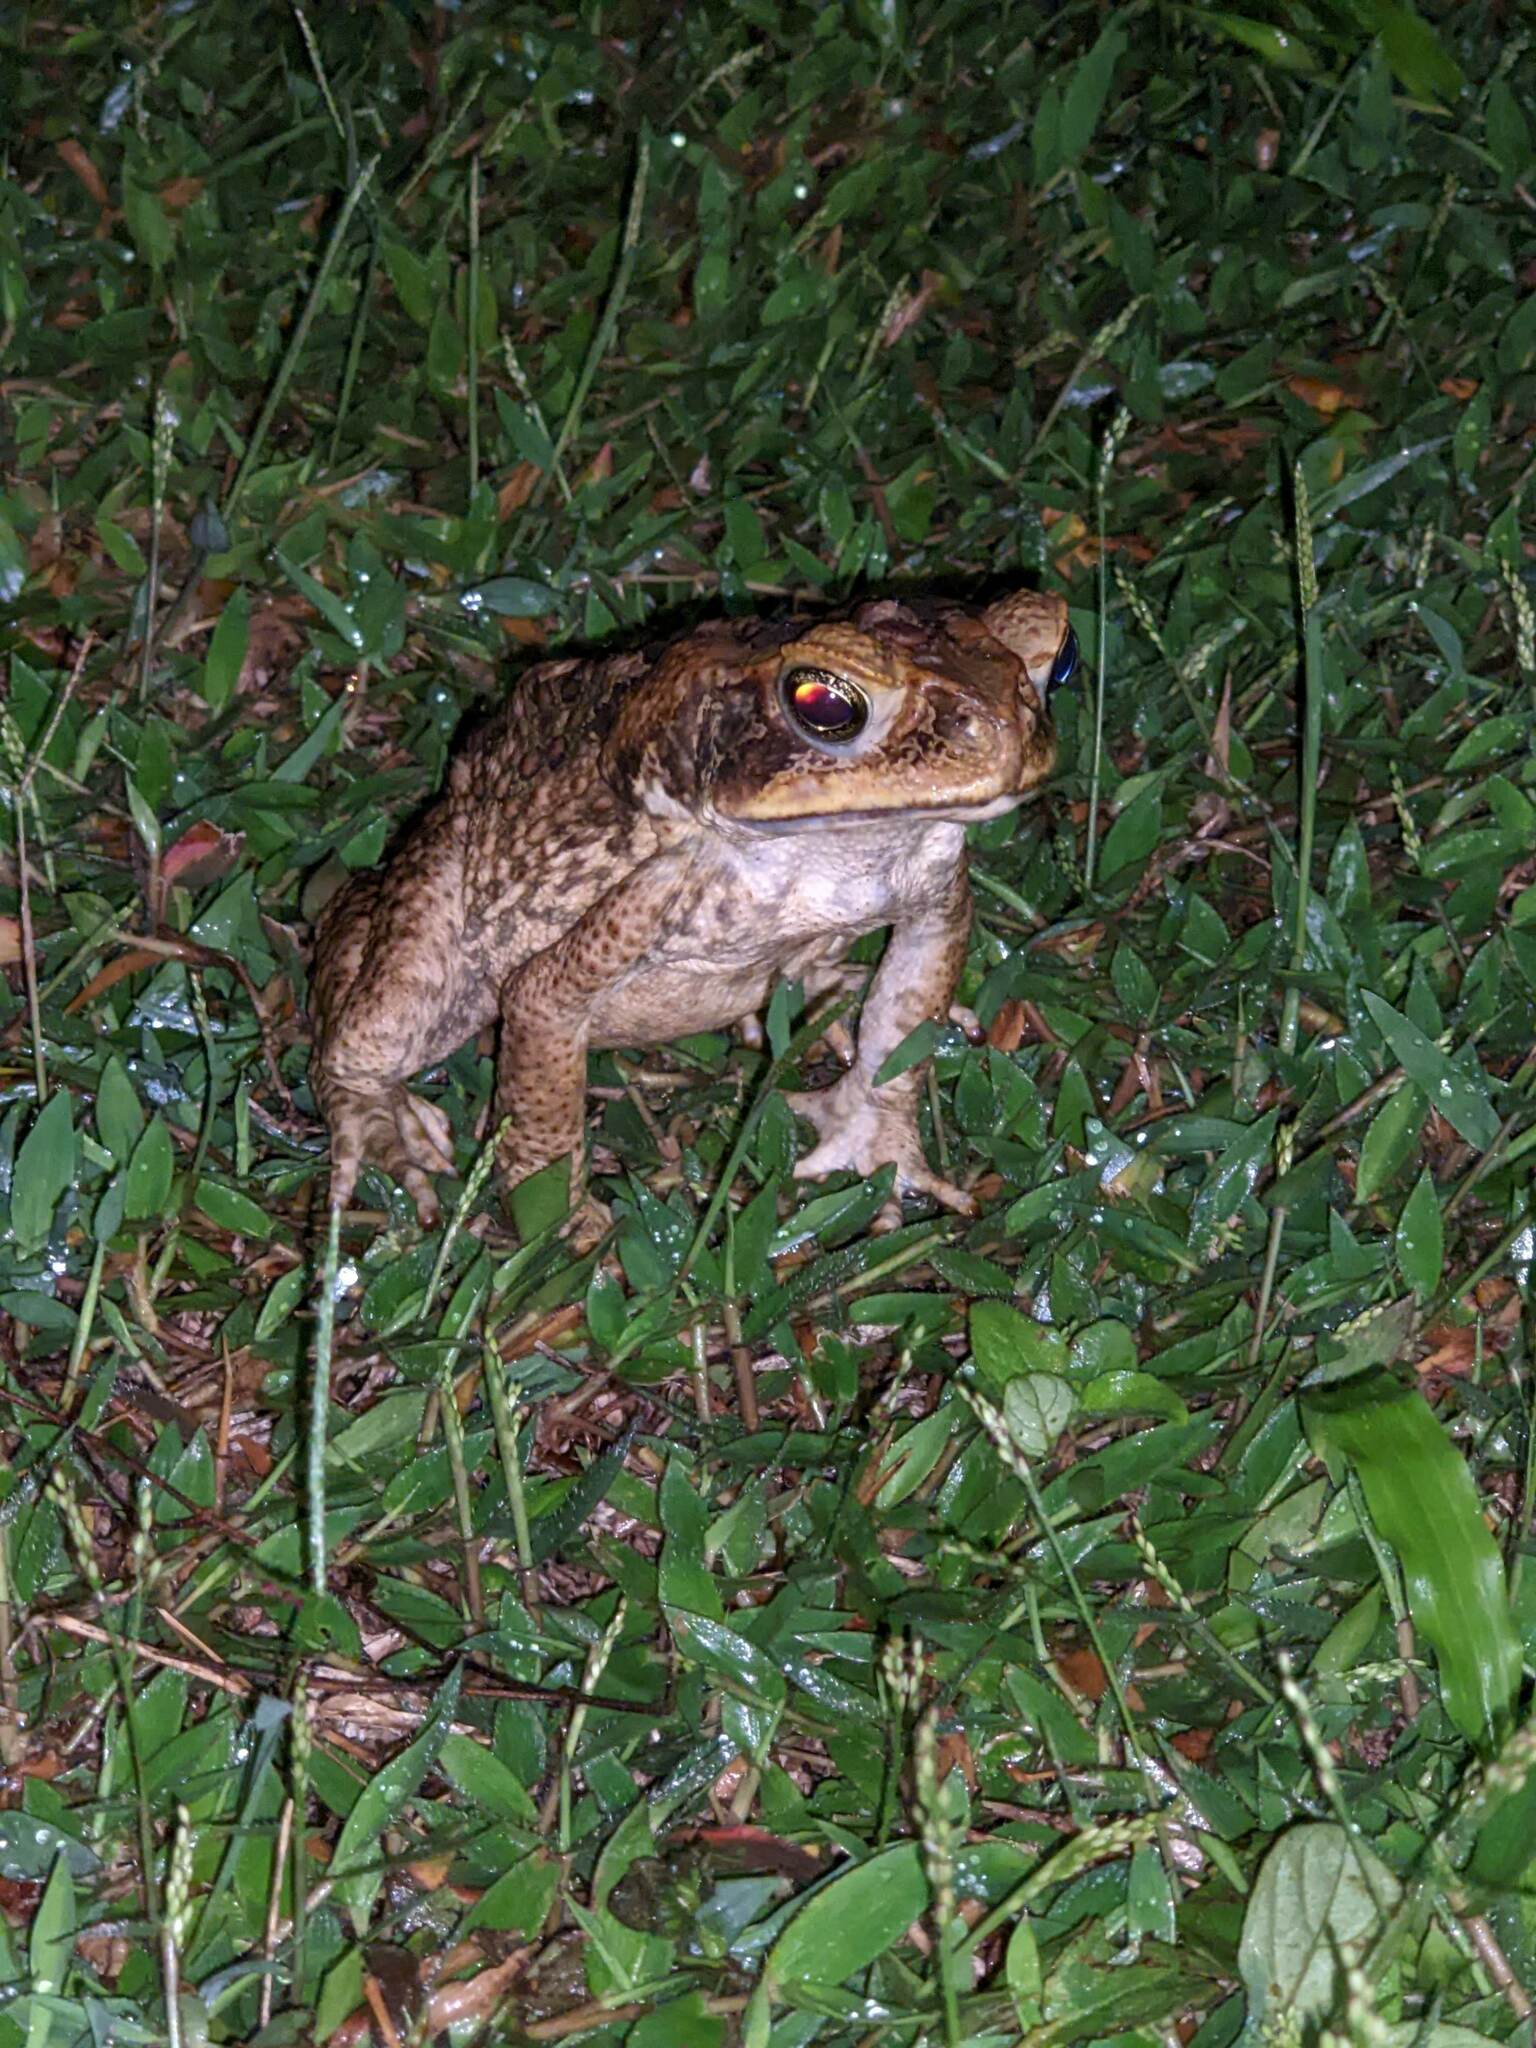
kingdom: Animalia
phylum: Chordata
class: Amphibia
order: Anura
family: Bufonidae
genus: Rhinella
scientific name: Rhinella marina
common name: Cane toad
